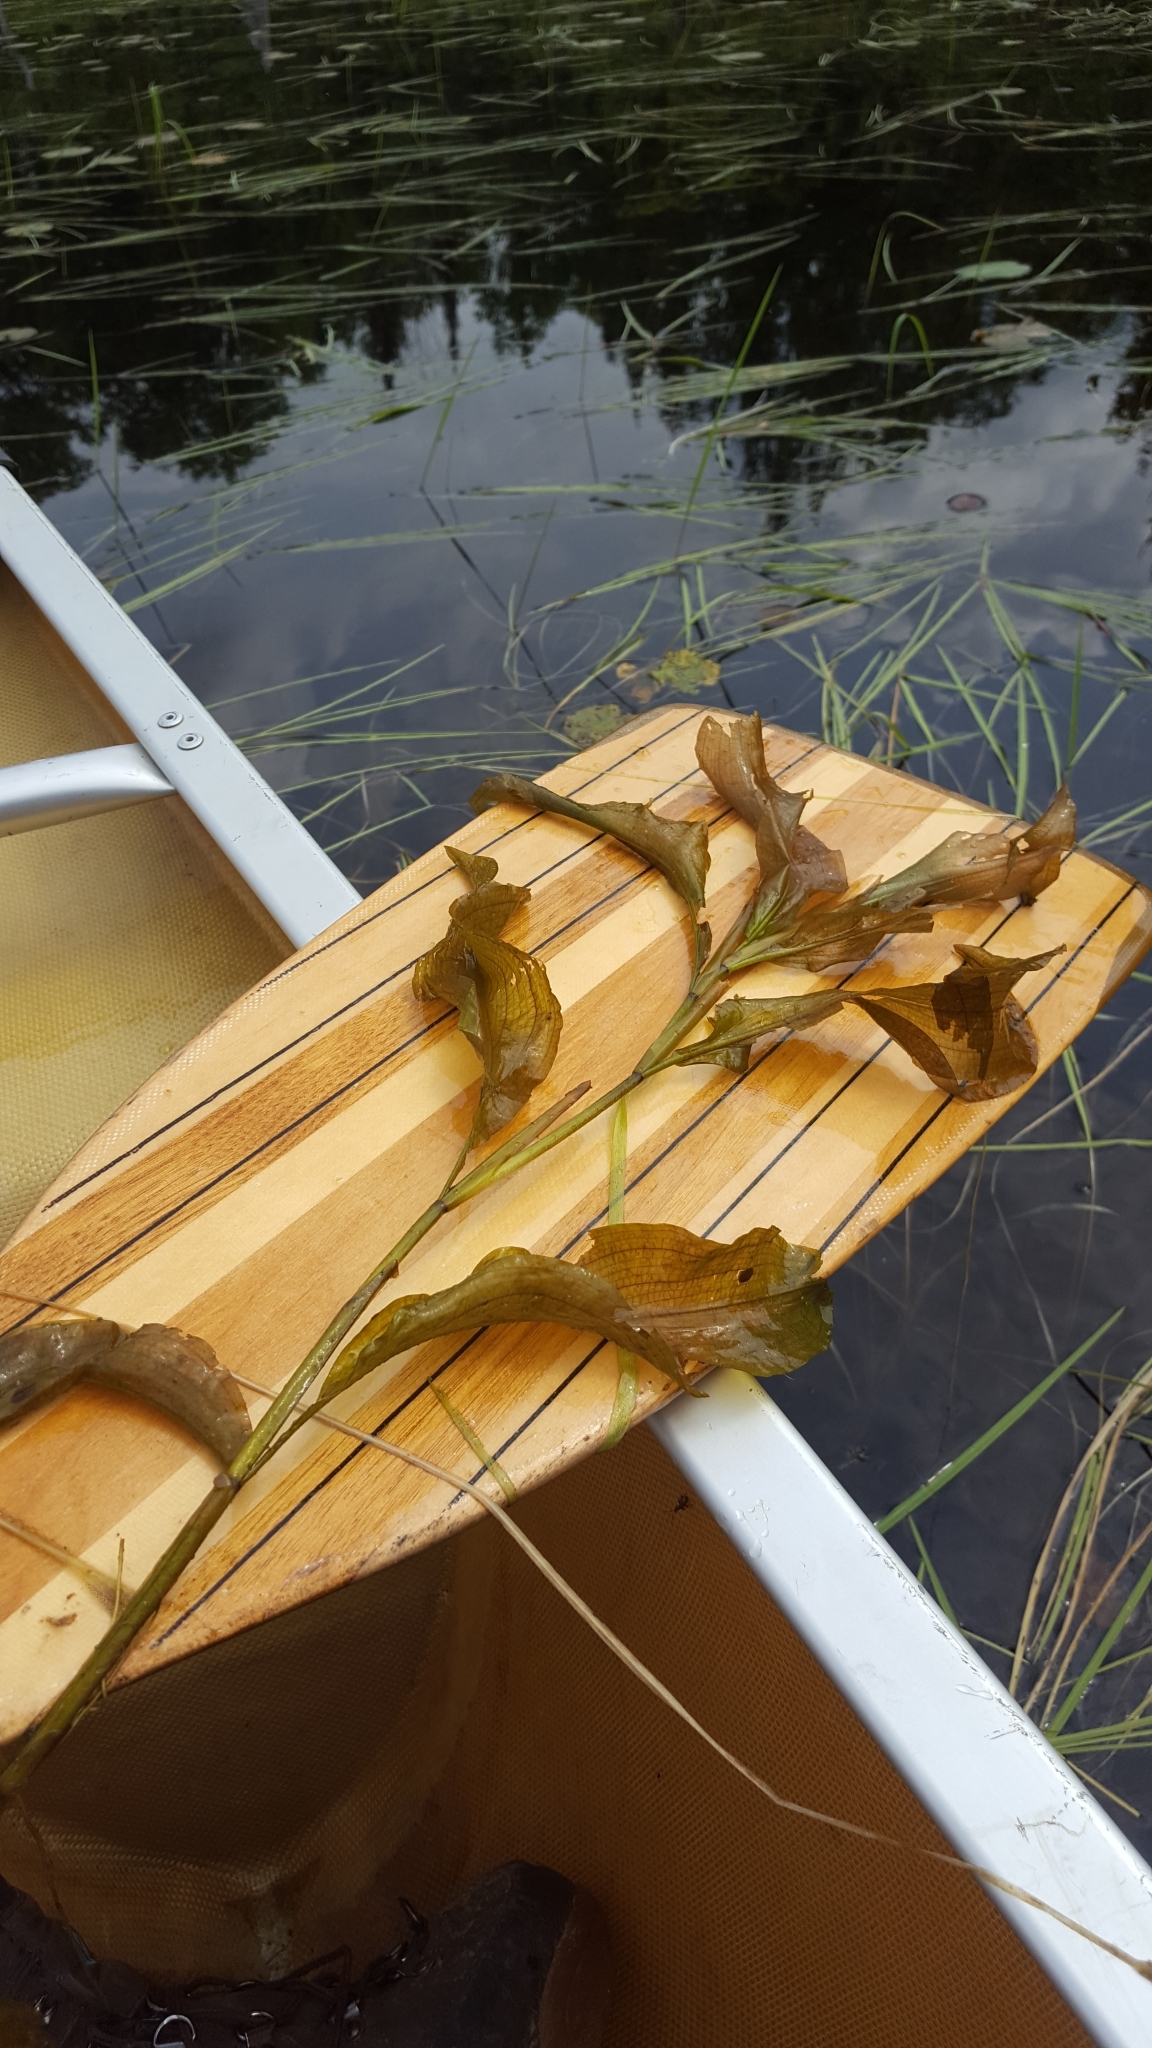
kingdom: Plantae
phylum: Tracheophyta
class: Liliopsida
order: Alismatales
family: Potamogetonaceae
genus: Potamogeton
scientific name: Potamogeton amplifolius
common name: Broad-leaved pondweed
